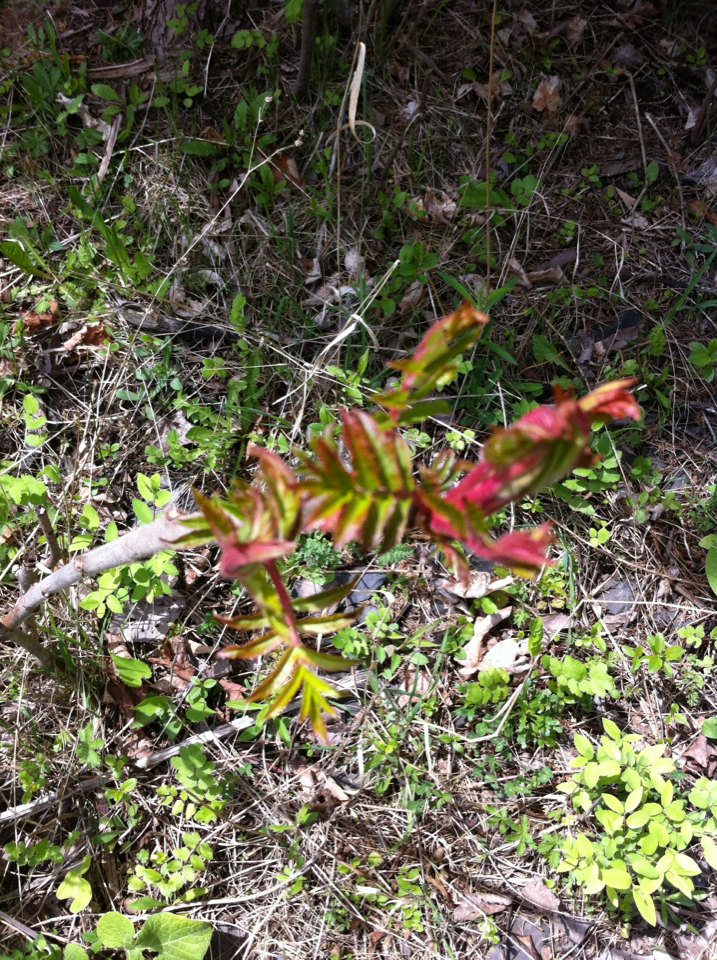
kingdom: Plantae
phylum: Tracheophyta
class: Magnoliopsida
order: Sapindales
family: Anacardiaceae
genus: Rhus
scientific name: Rhus typhina
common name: Staghorn sumac
